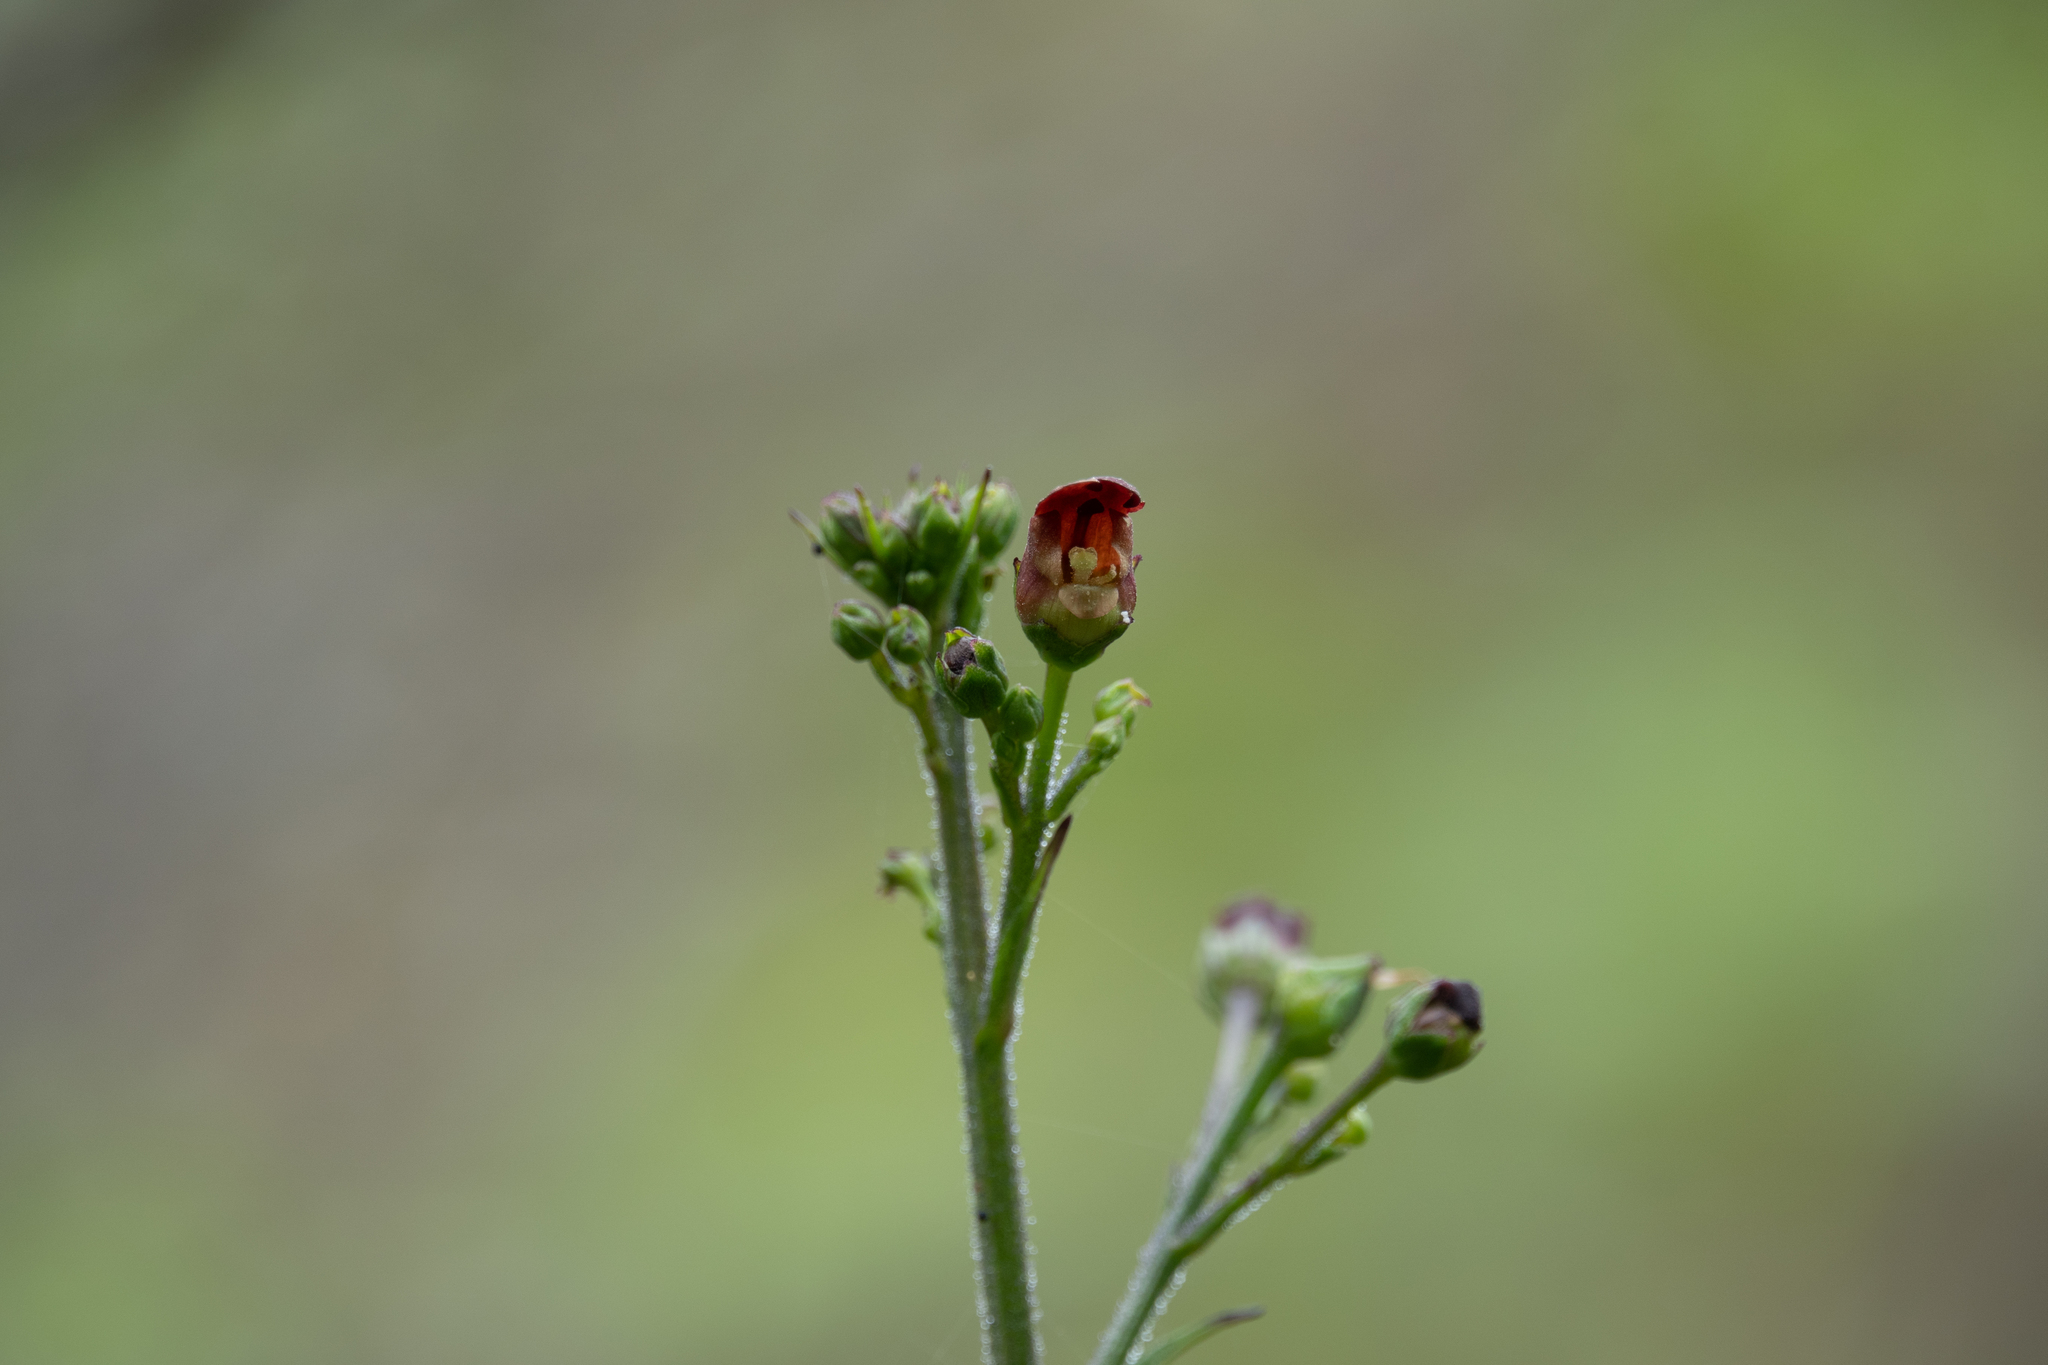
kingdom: Plantae
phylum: Tracheophyta
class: Magnoliopsida
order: Lamiales
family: Scrophulariaceae
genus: Scrophularia
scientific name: Scrophularia californica
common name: California figwort
